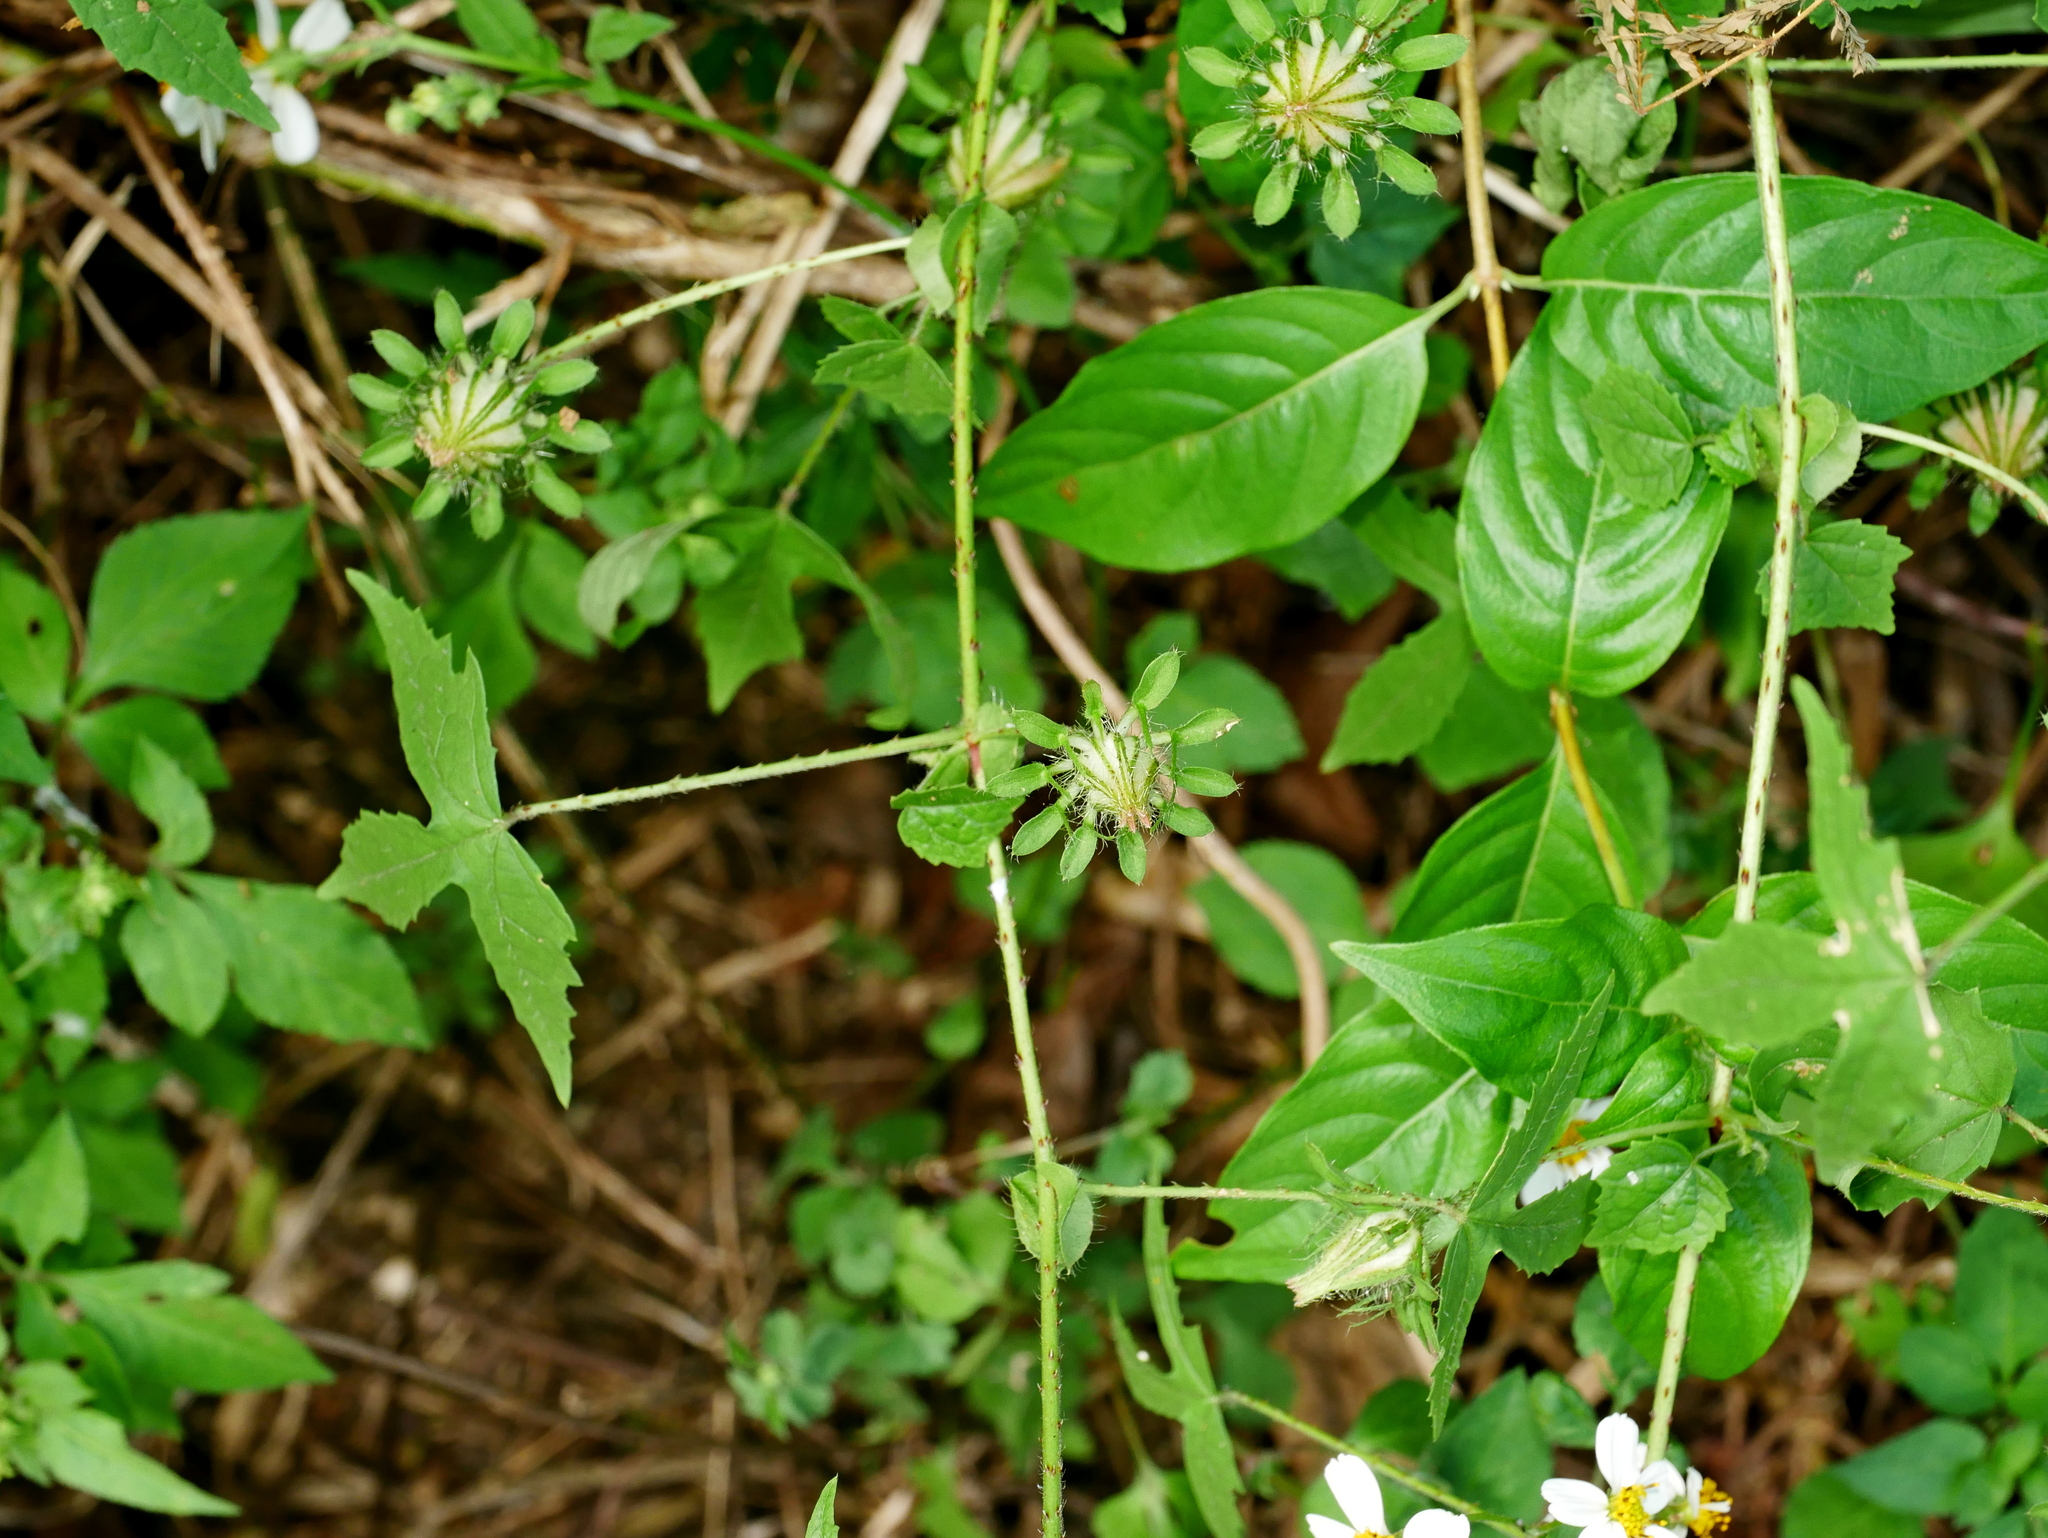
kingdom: Plantae
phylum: Tracheophyta
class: Magnoliopsida
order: Malvales
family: Malvaceae
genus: Hibiscus
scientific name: Hibiscus surattensis
